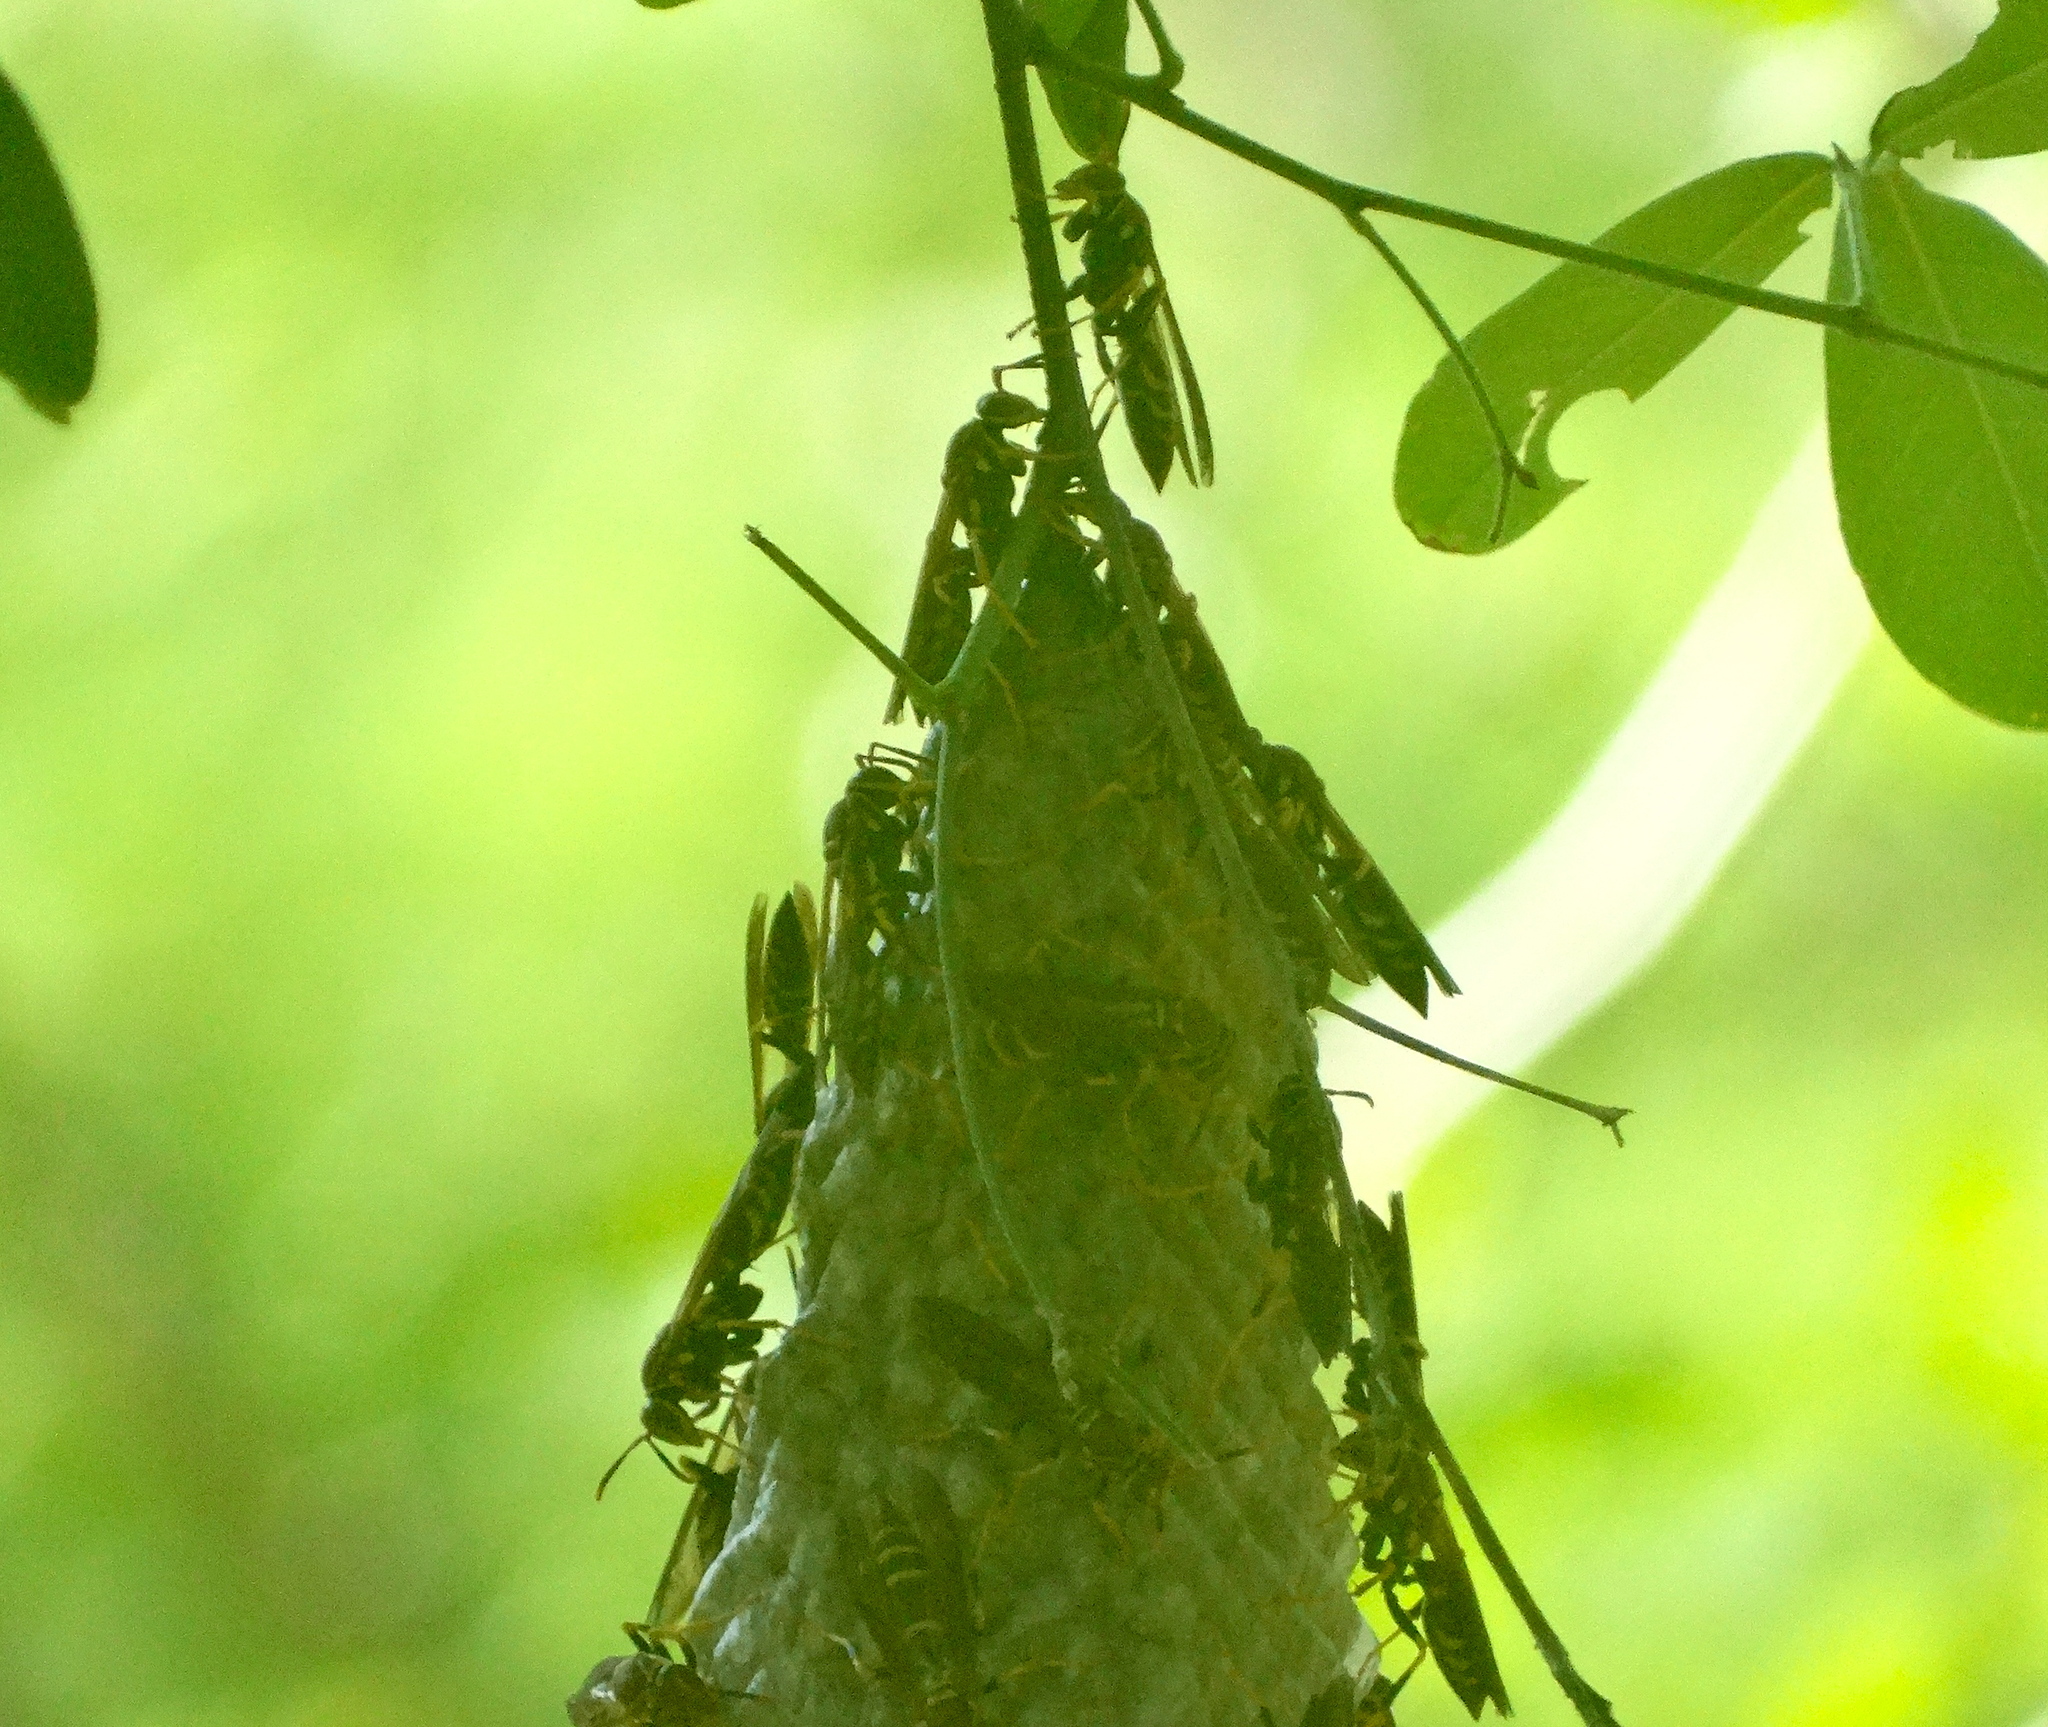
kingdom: Animalia
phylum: Arthropoda
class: Insecta
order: Hymenoptera
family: Eumenidae
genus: Polistes
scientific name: Polistes instabilis
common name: Unstable paper wasp
